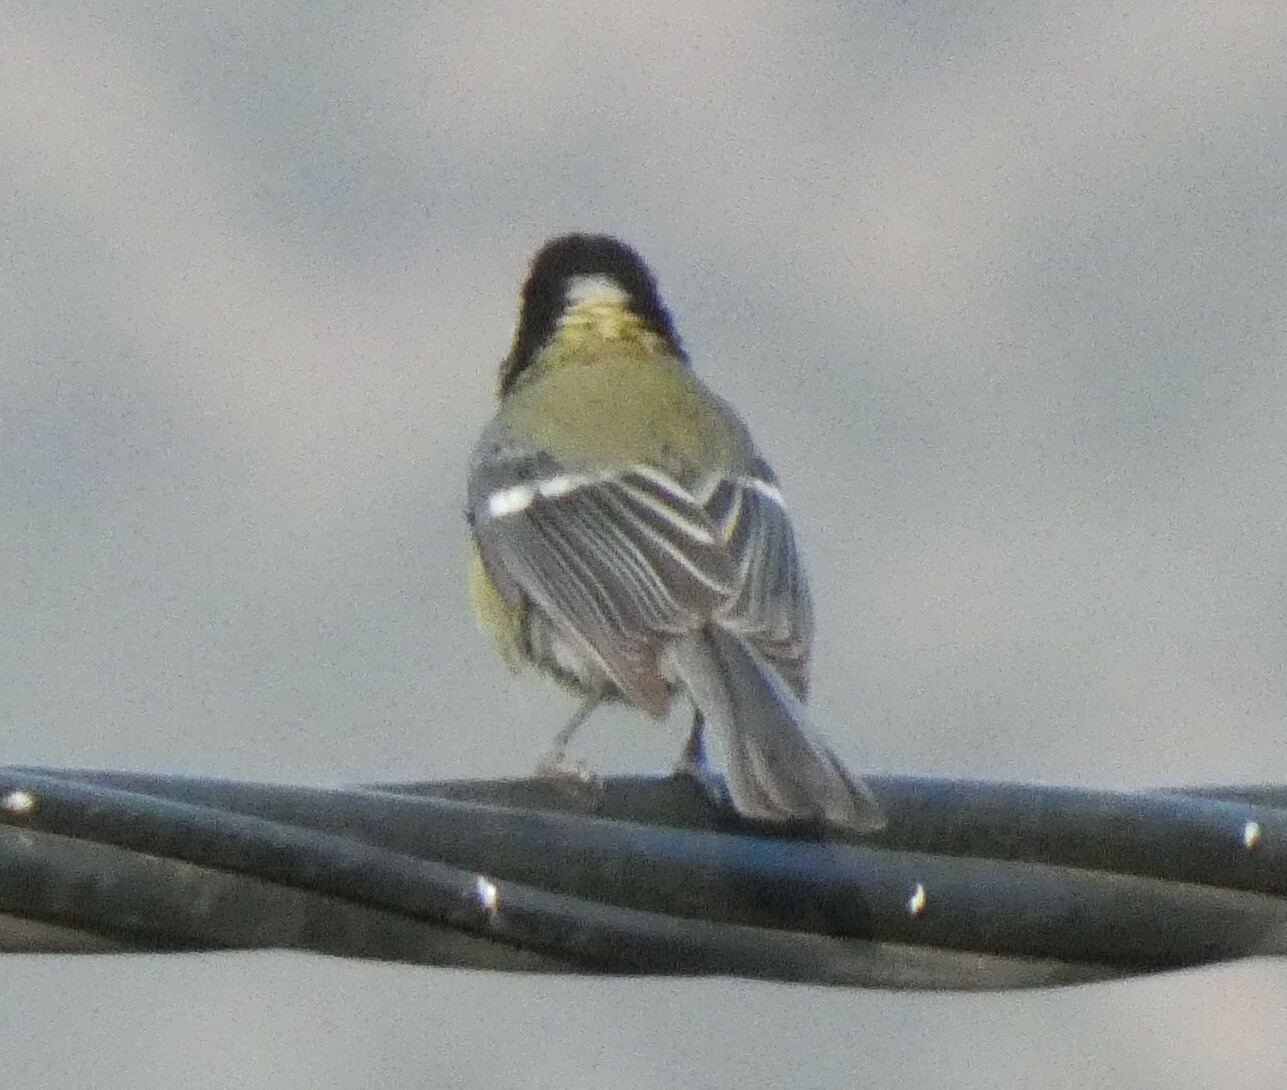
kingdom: Animalia
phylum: Chordata
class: Aves
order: Passeriformes
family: Paridae
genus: Parus
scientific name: Parus major
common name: Great tit
